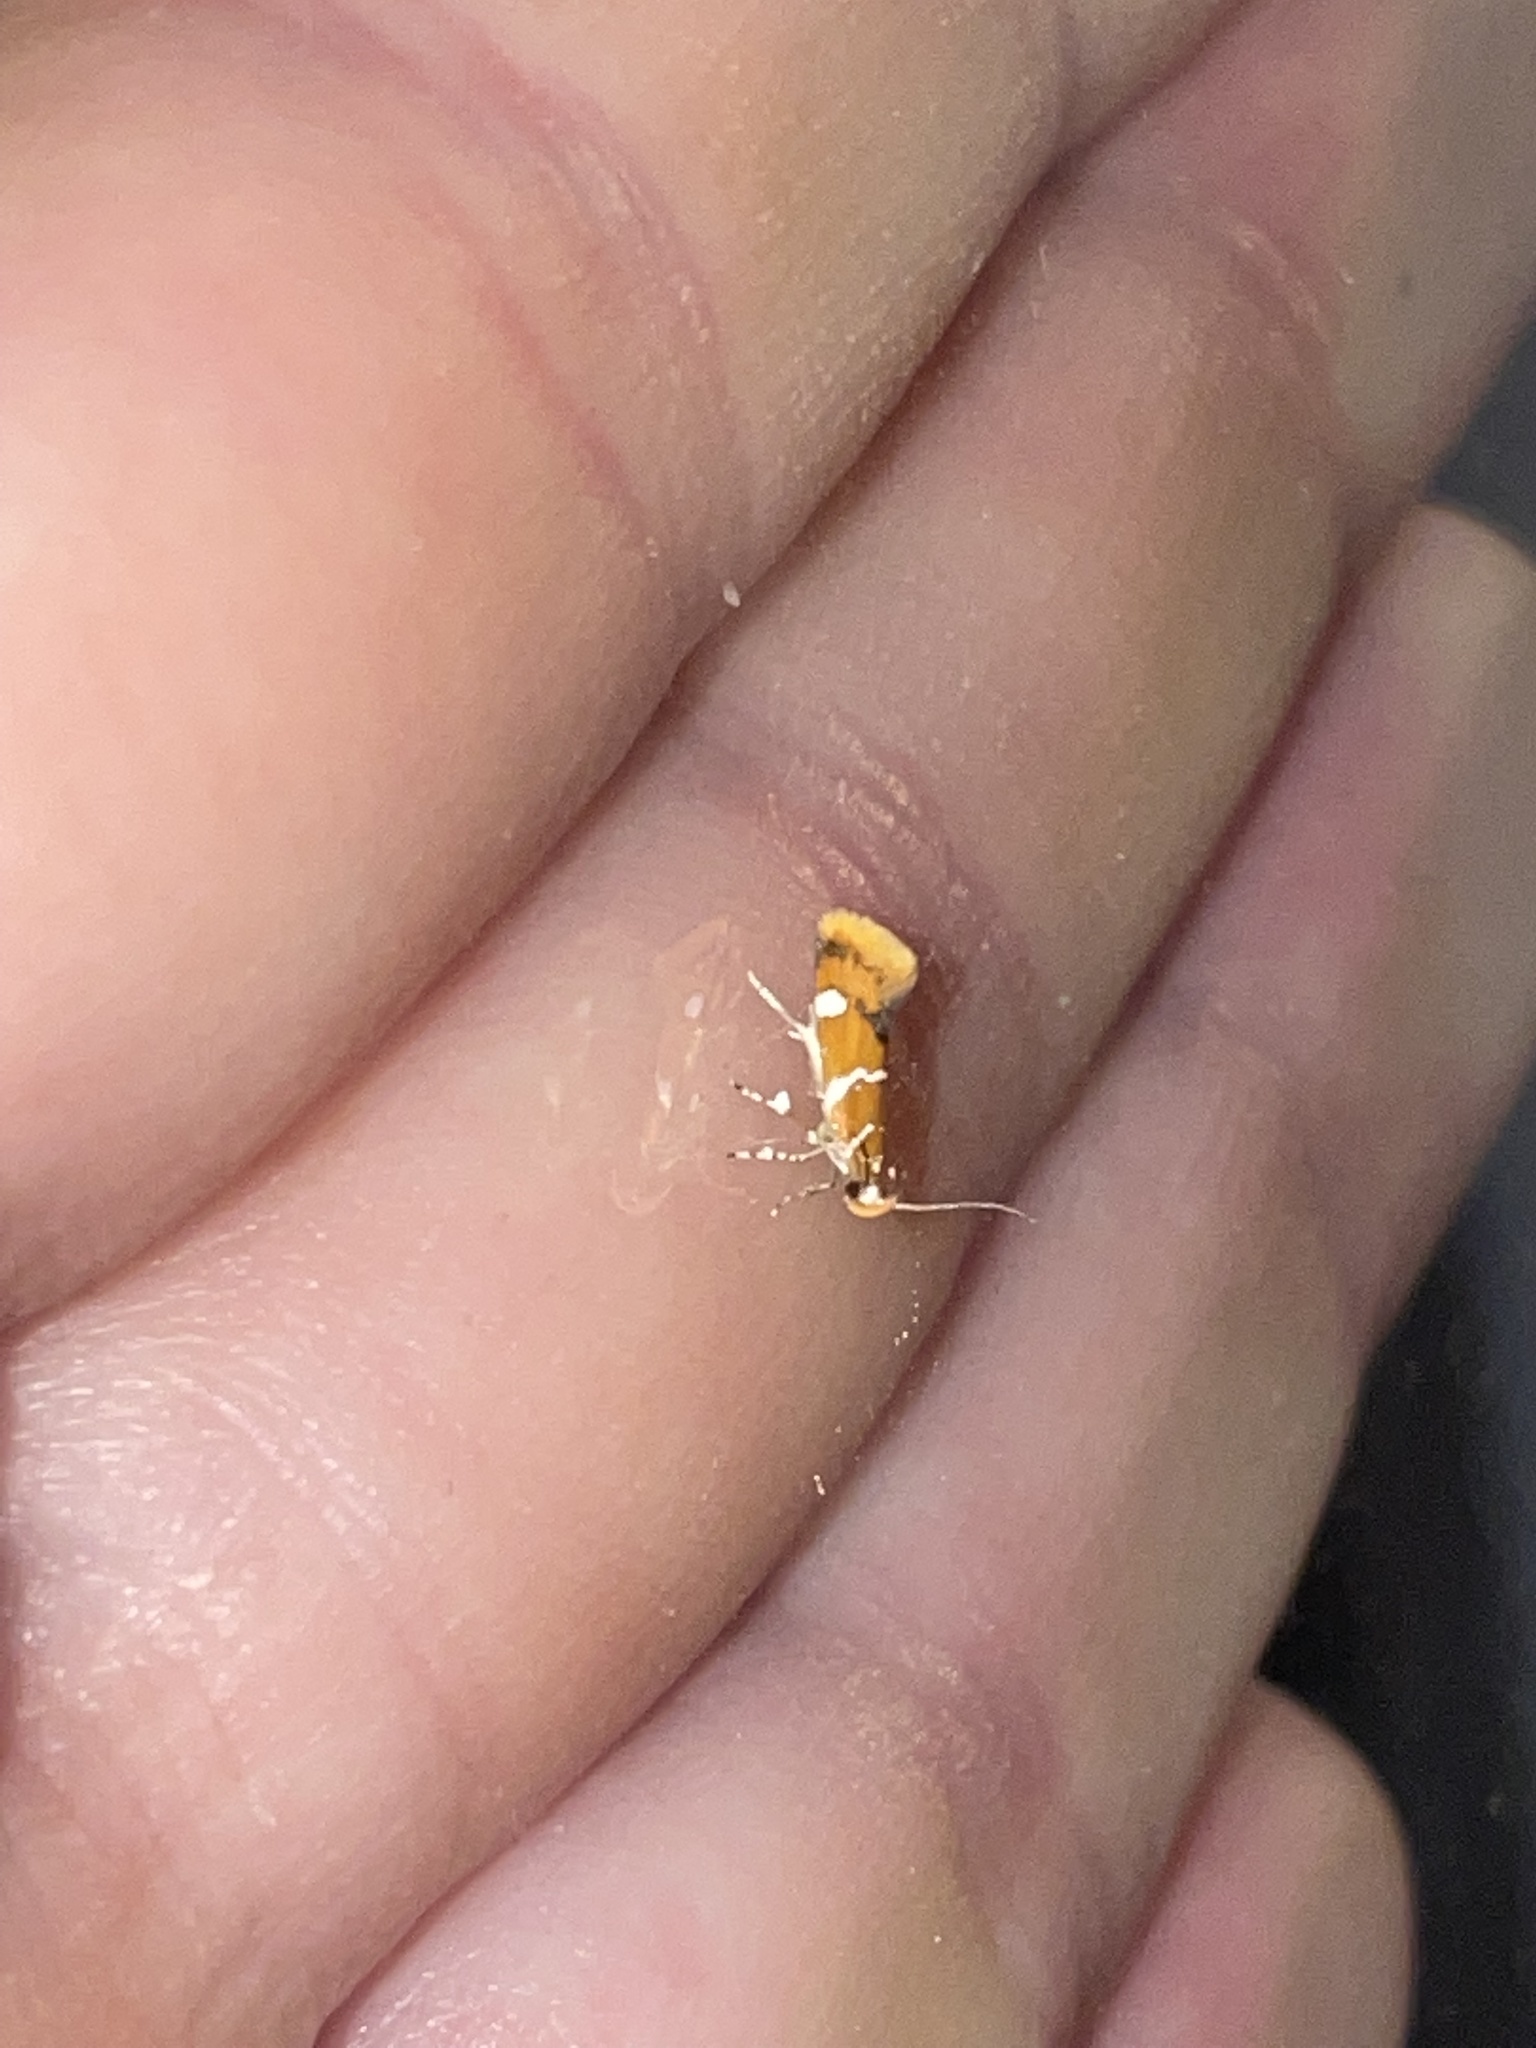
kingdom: Animalia
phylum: Arthropoda
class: Insecta
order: Lepidoptera
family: Oecophoridae
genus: Promalactis
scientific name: Promalactis suzukiella
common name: Moth
